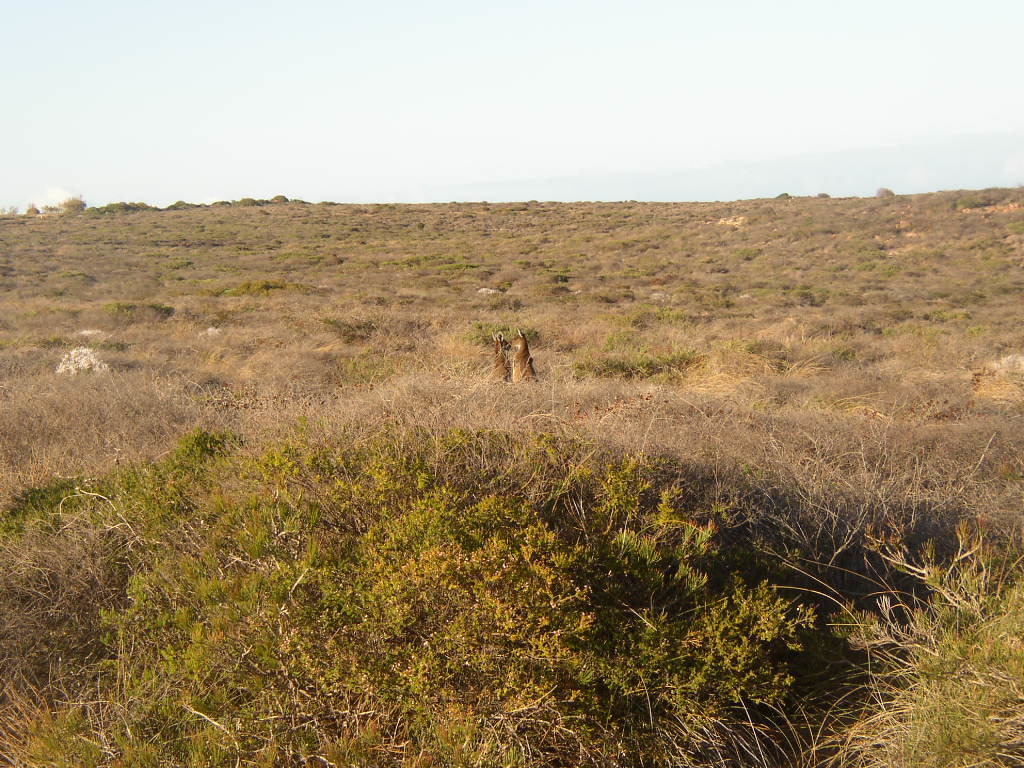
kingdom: Animalia
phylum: Chordata
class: Mammalia
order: Diprotodontia
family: Macropodidae
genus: Macropus
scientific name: Macropus fuliginosus
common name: Western grey kangaroo
